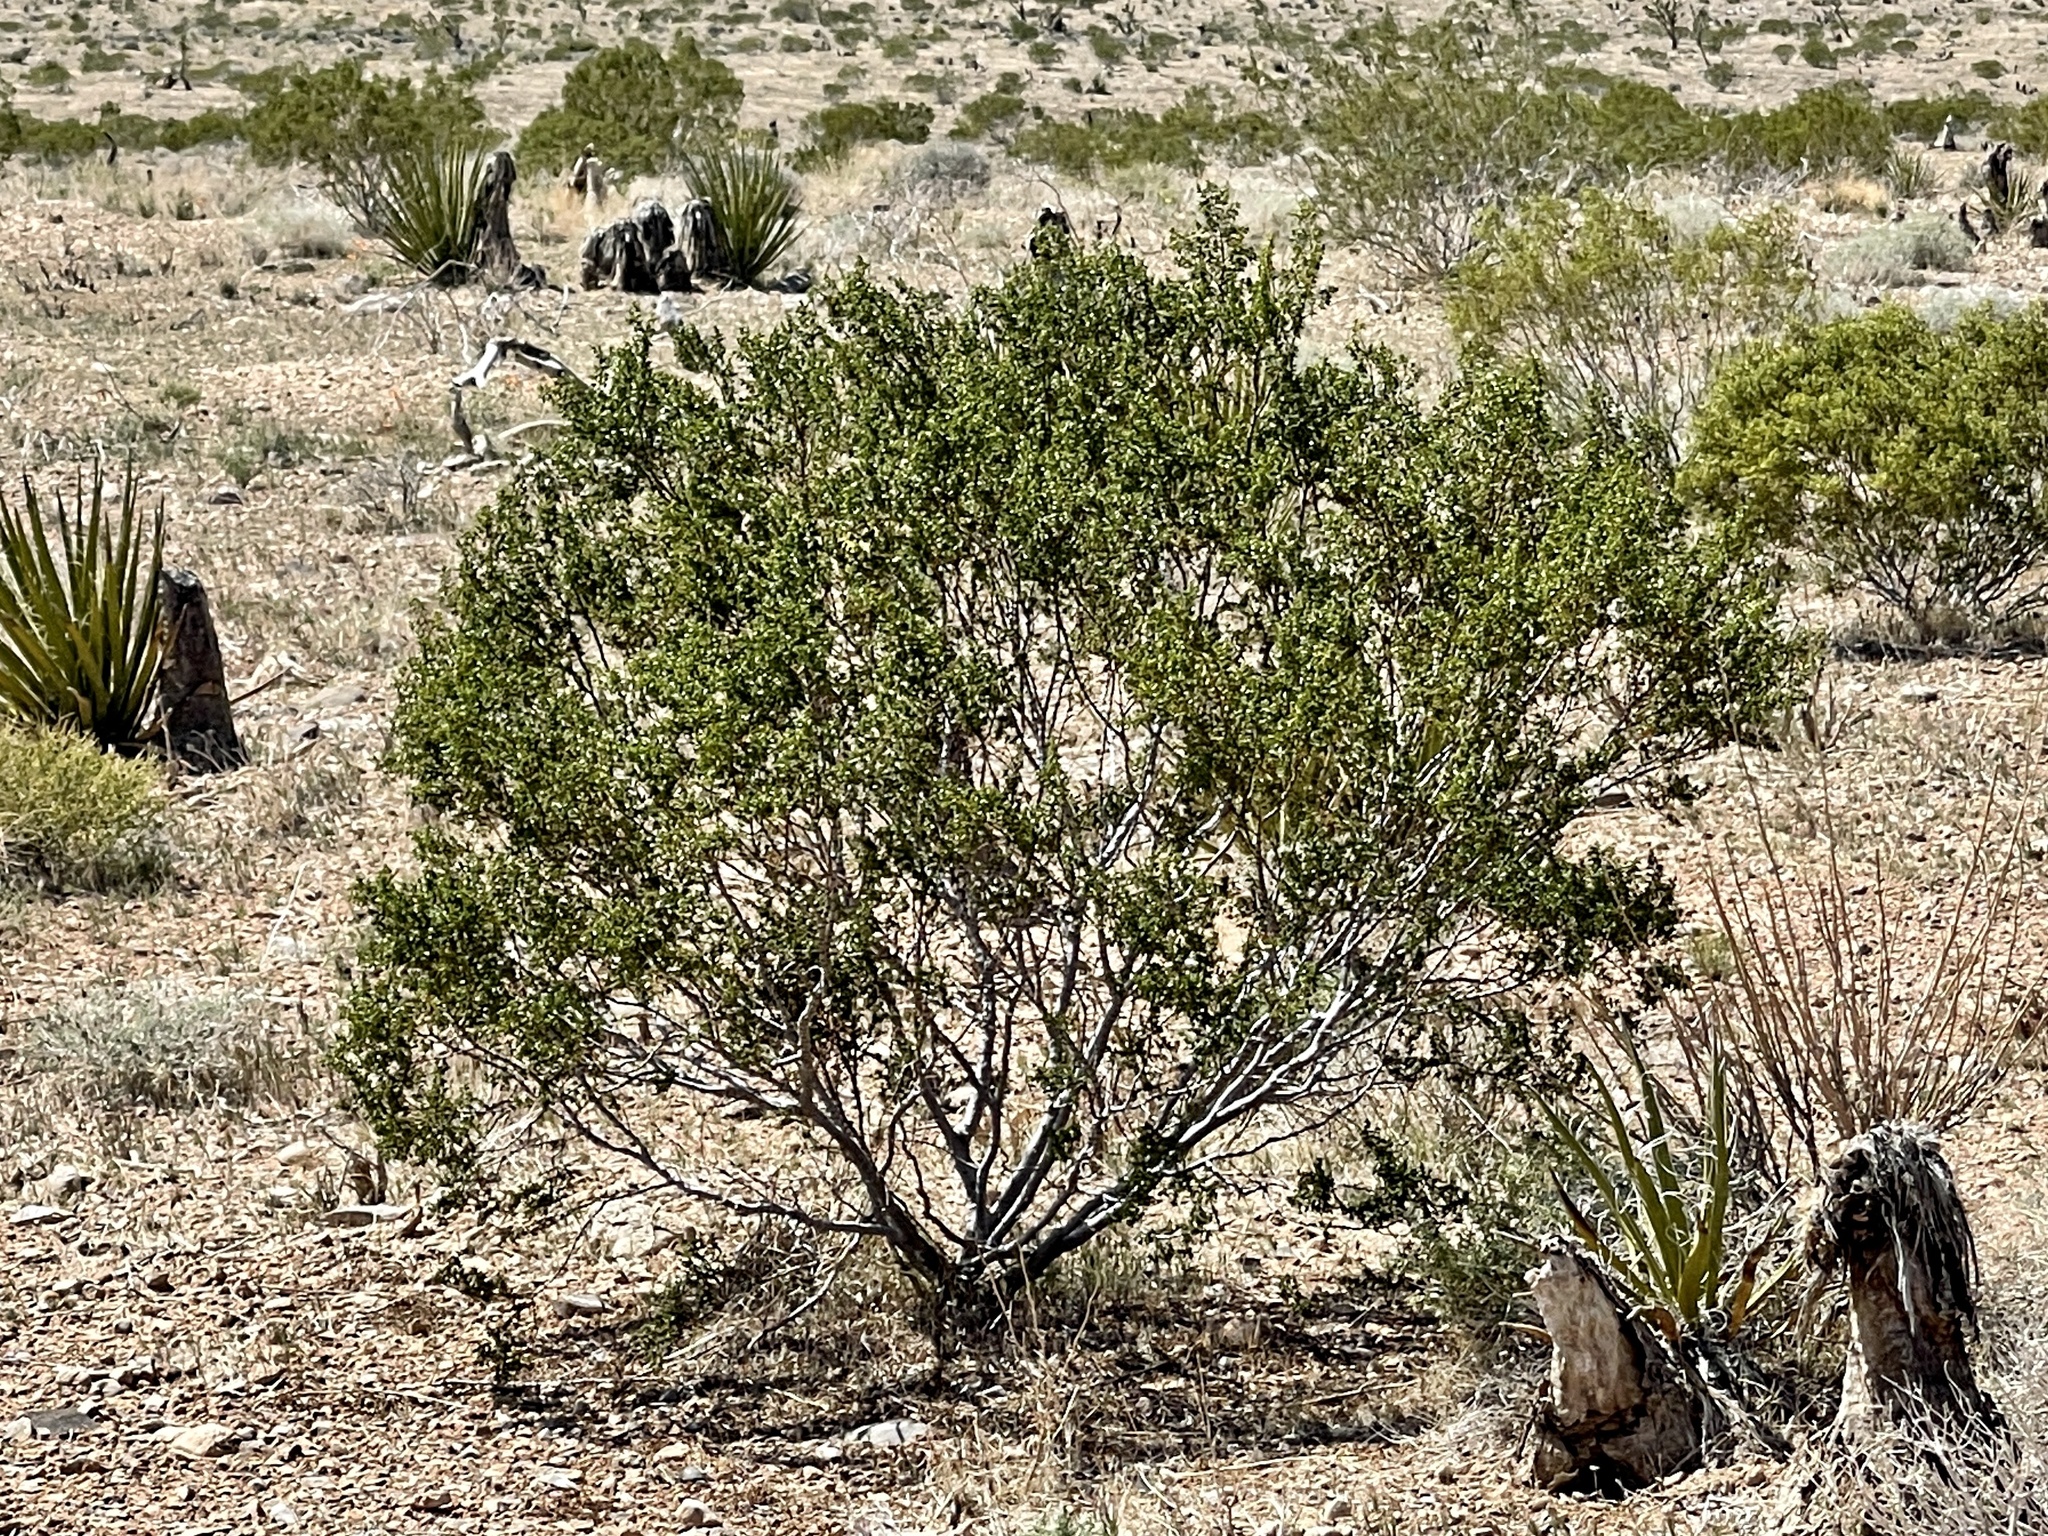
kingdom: Plantae
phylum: Tracheophyta
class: Magnoliopsida
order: Zygophyllales
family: Zygophyllaceae
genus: Larrea
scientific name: Larrea tridentata
